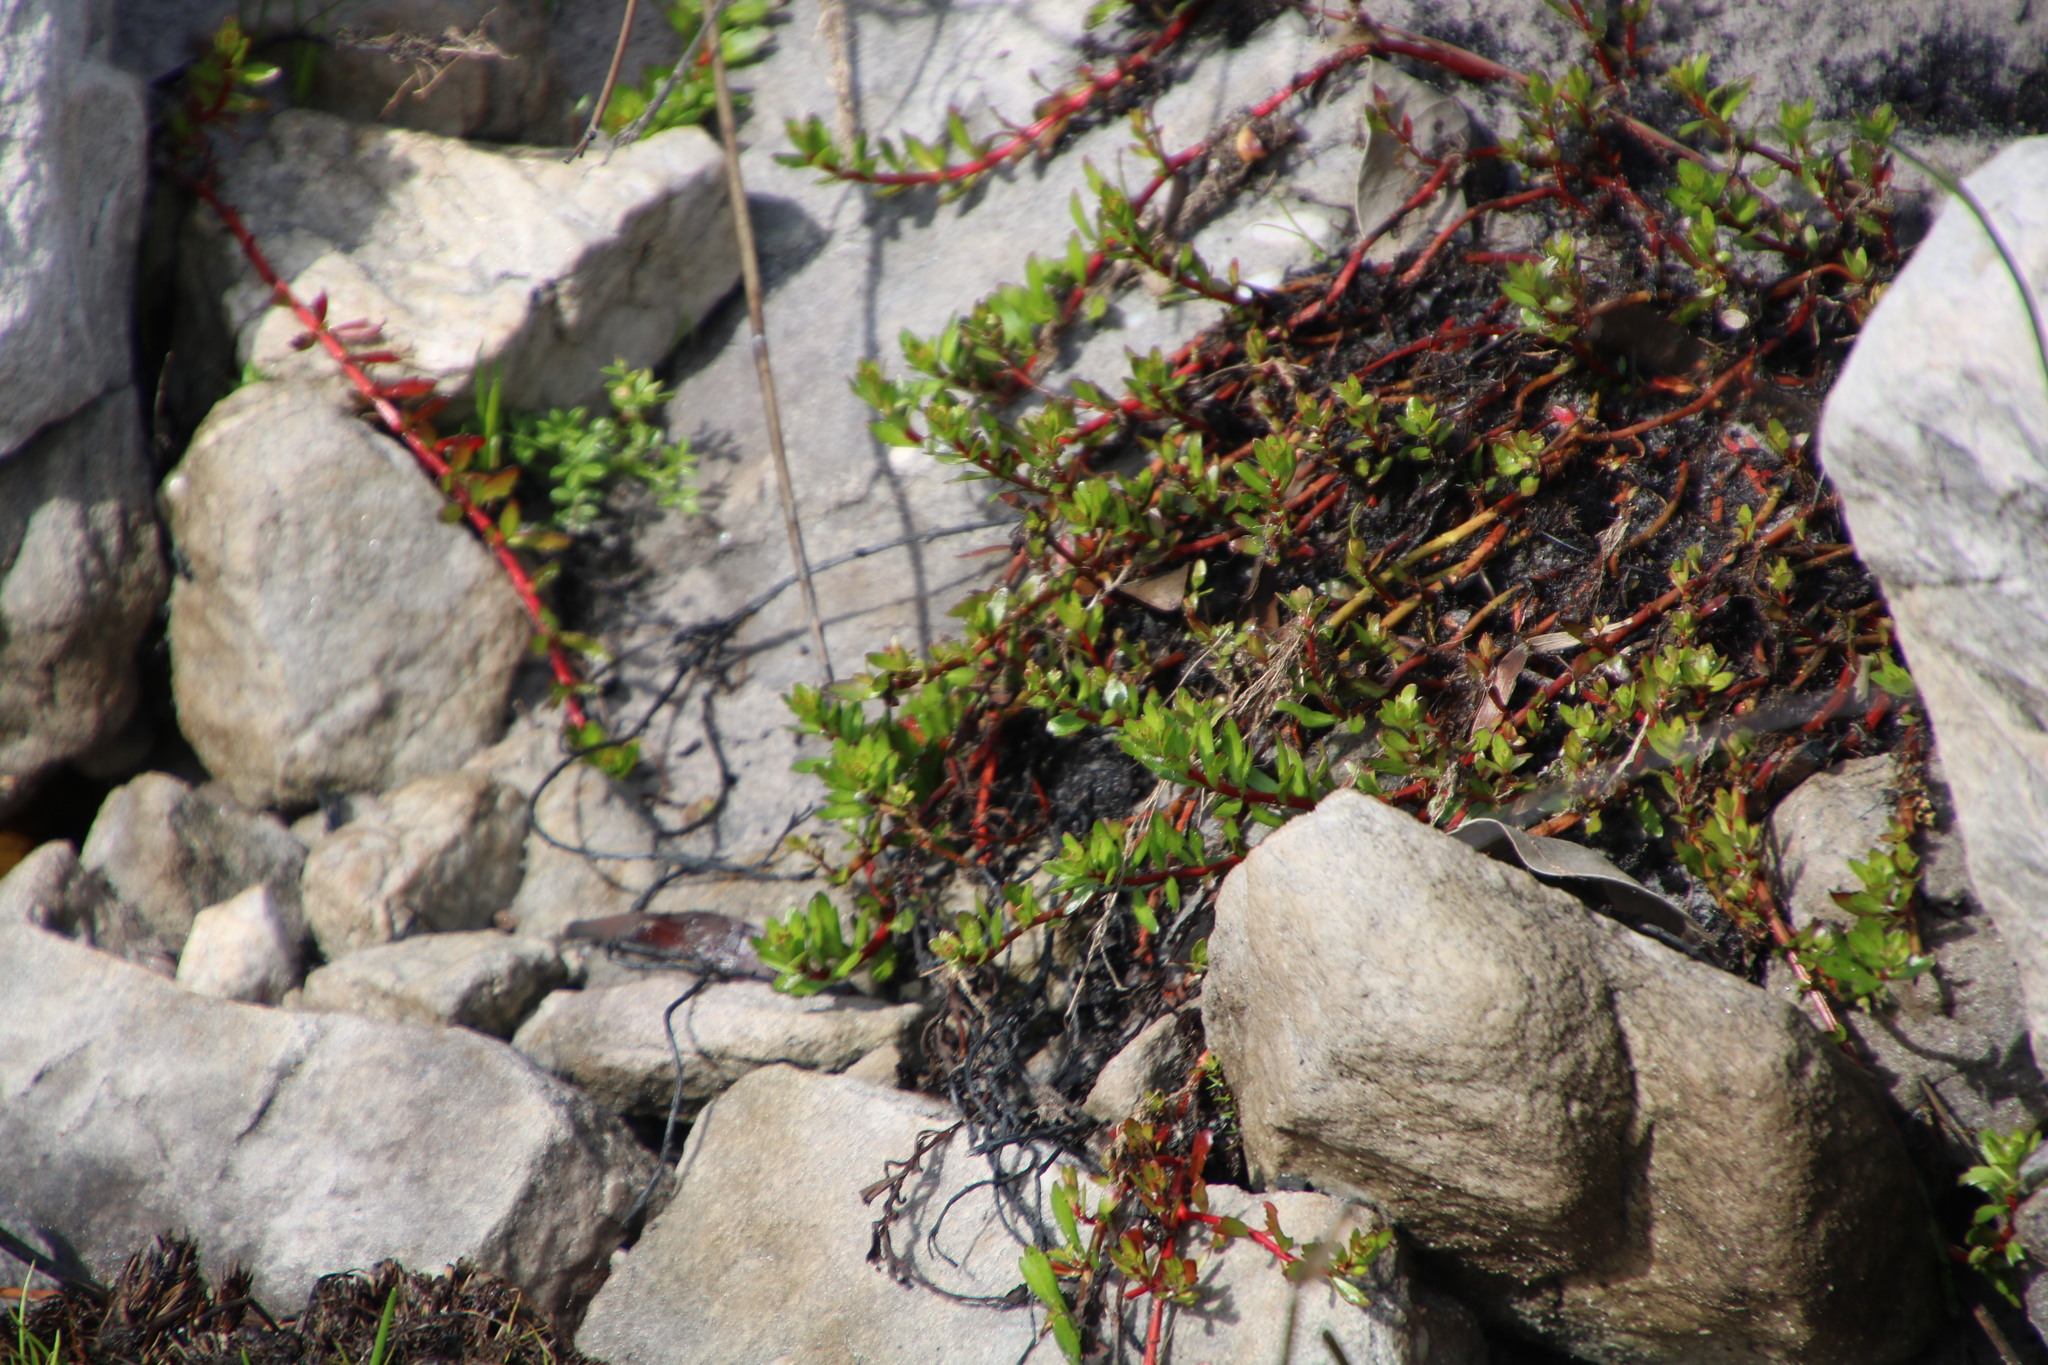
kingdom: Plantae
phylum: Tracheophyta
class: Magnoliopsida
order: Saxifragales
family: Haloragaceae
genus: Laurembergia
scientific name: Laurembergia repens
